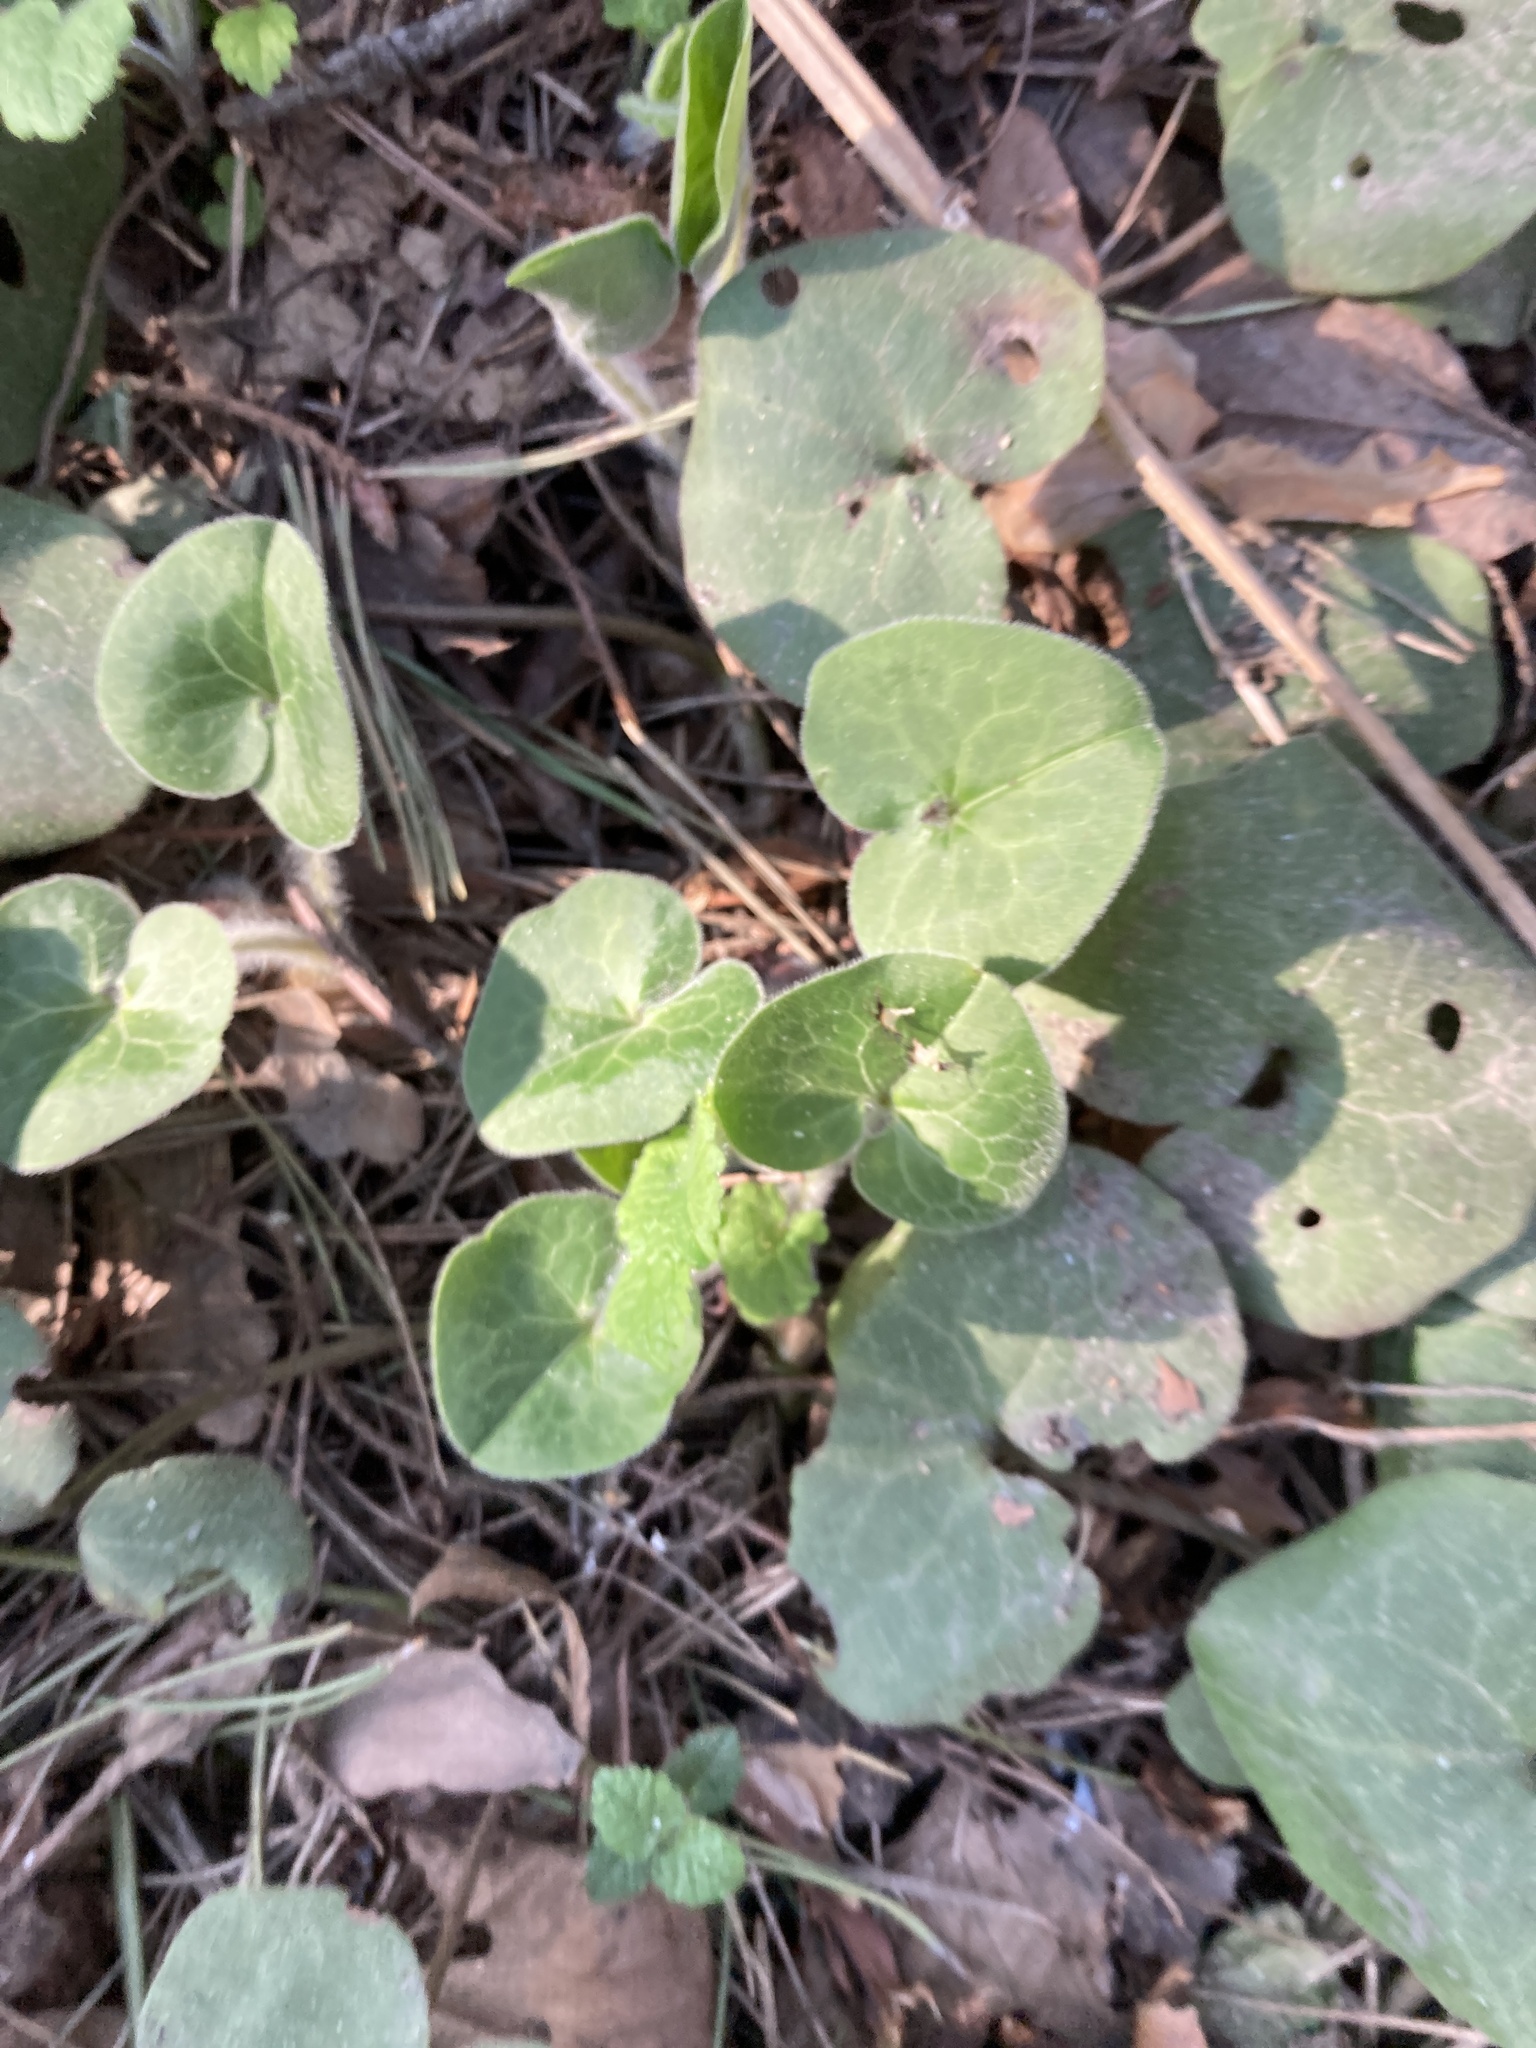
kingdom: Plantae
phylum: Tracheophyta
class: Magnoliopsida
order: Piperales
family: Aristolochiaceae
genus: Asarum
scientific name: Asarum europaeum
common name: Asarabacca
